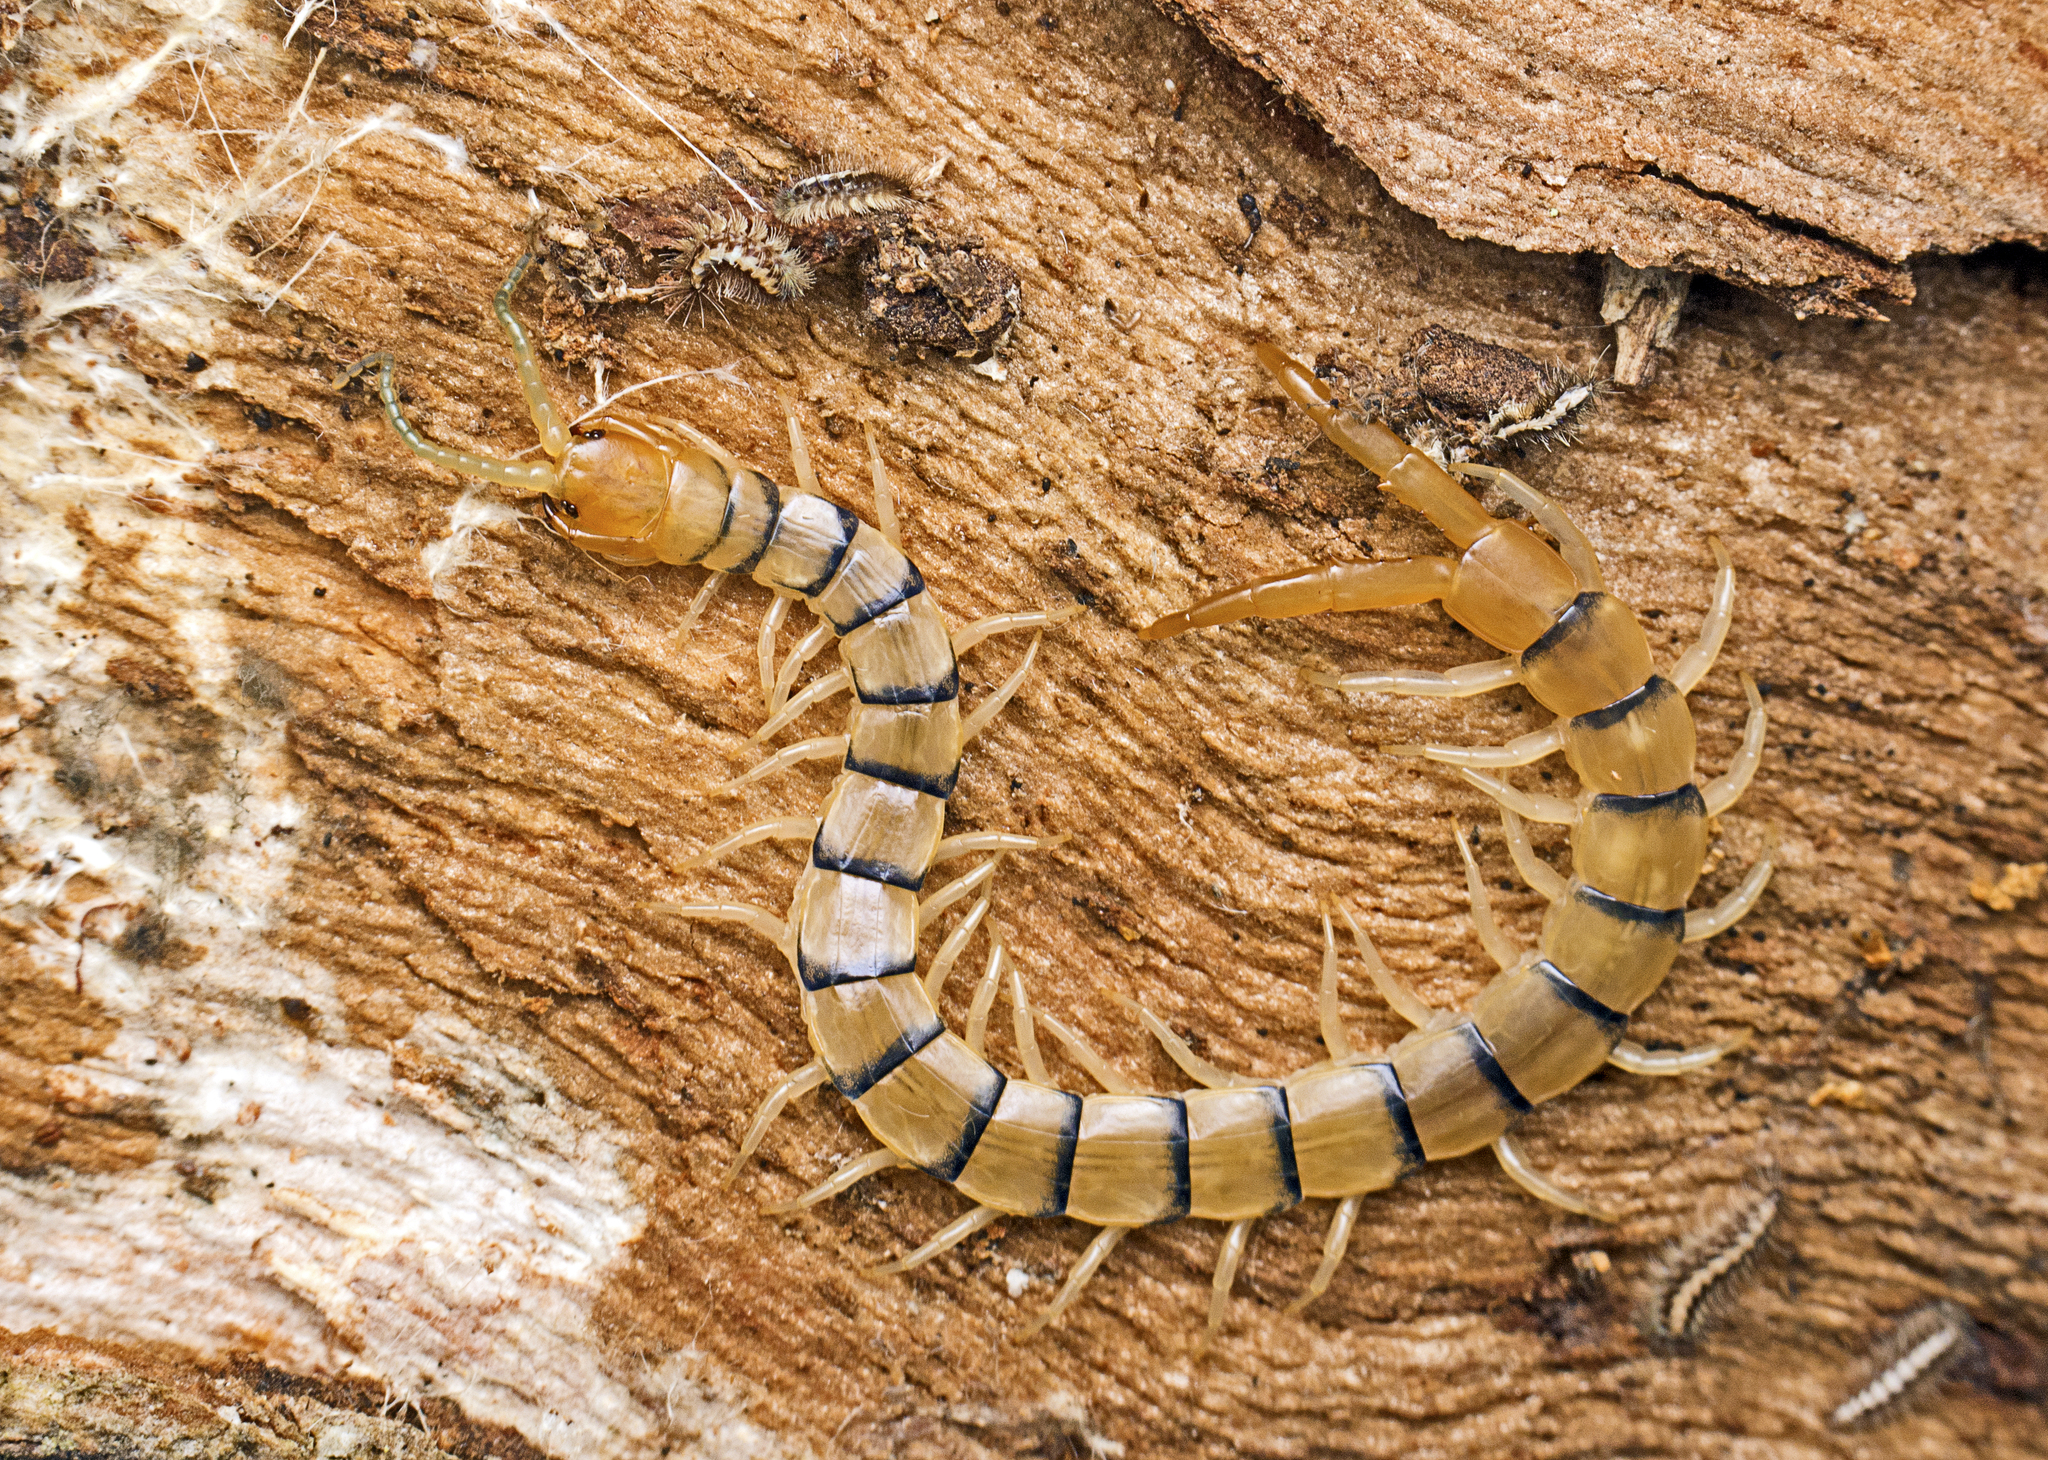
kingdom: Animalia
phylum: Arthropoda
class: Chilopoda
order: Scolopendromorpha
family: Scolopendridae
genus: Cormocephalus
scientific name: Cormocephalus
